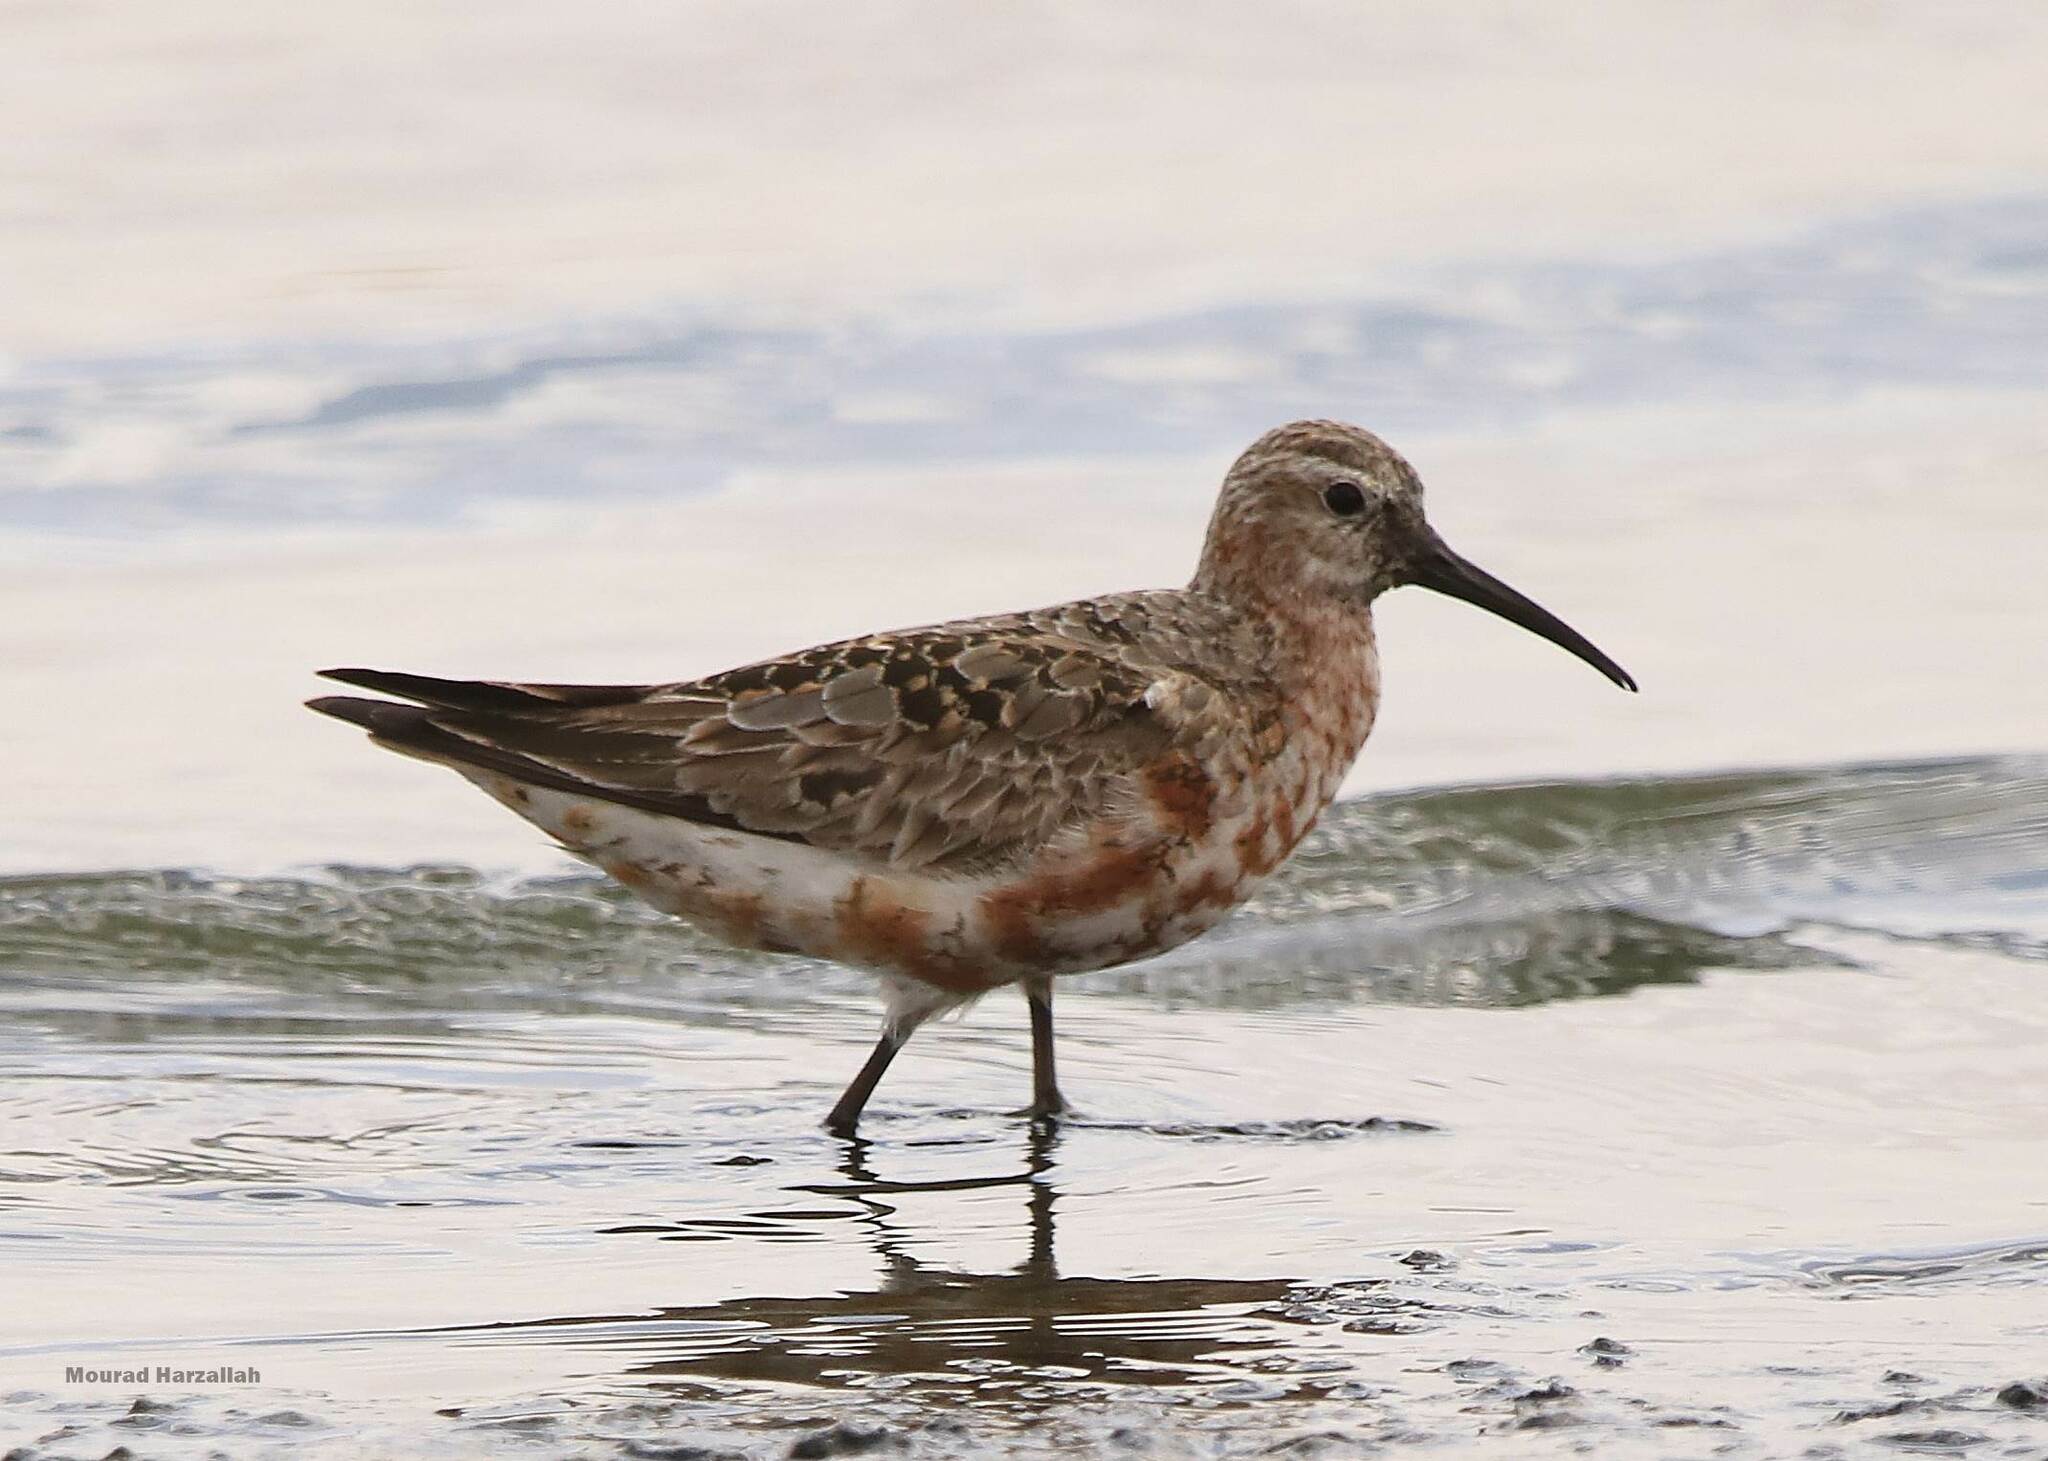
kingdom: Animalia
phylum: Chordata
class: Aves
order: Charadriiformes
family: Scolopacidae
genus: Calidris
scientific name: Calidris ferruginea
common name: Curlew sandpiper
